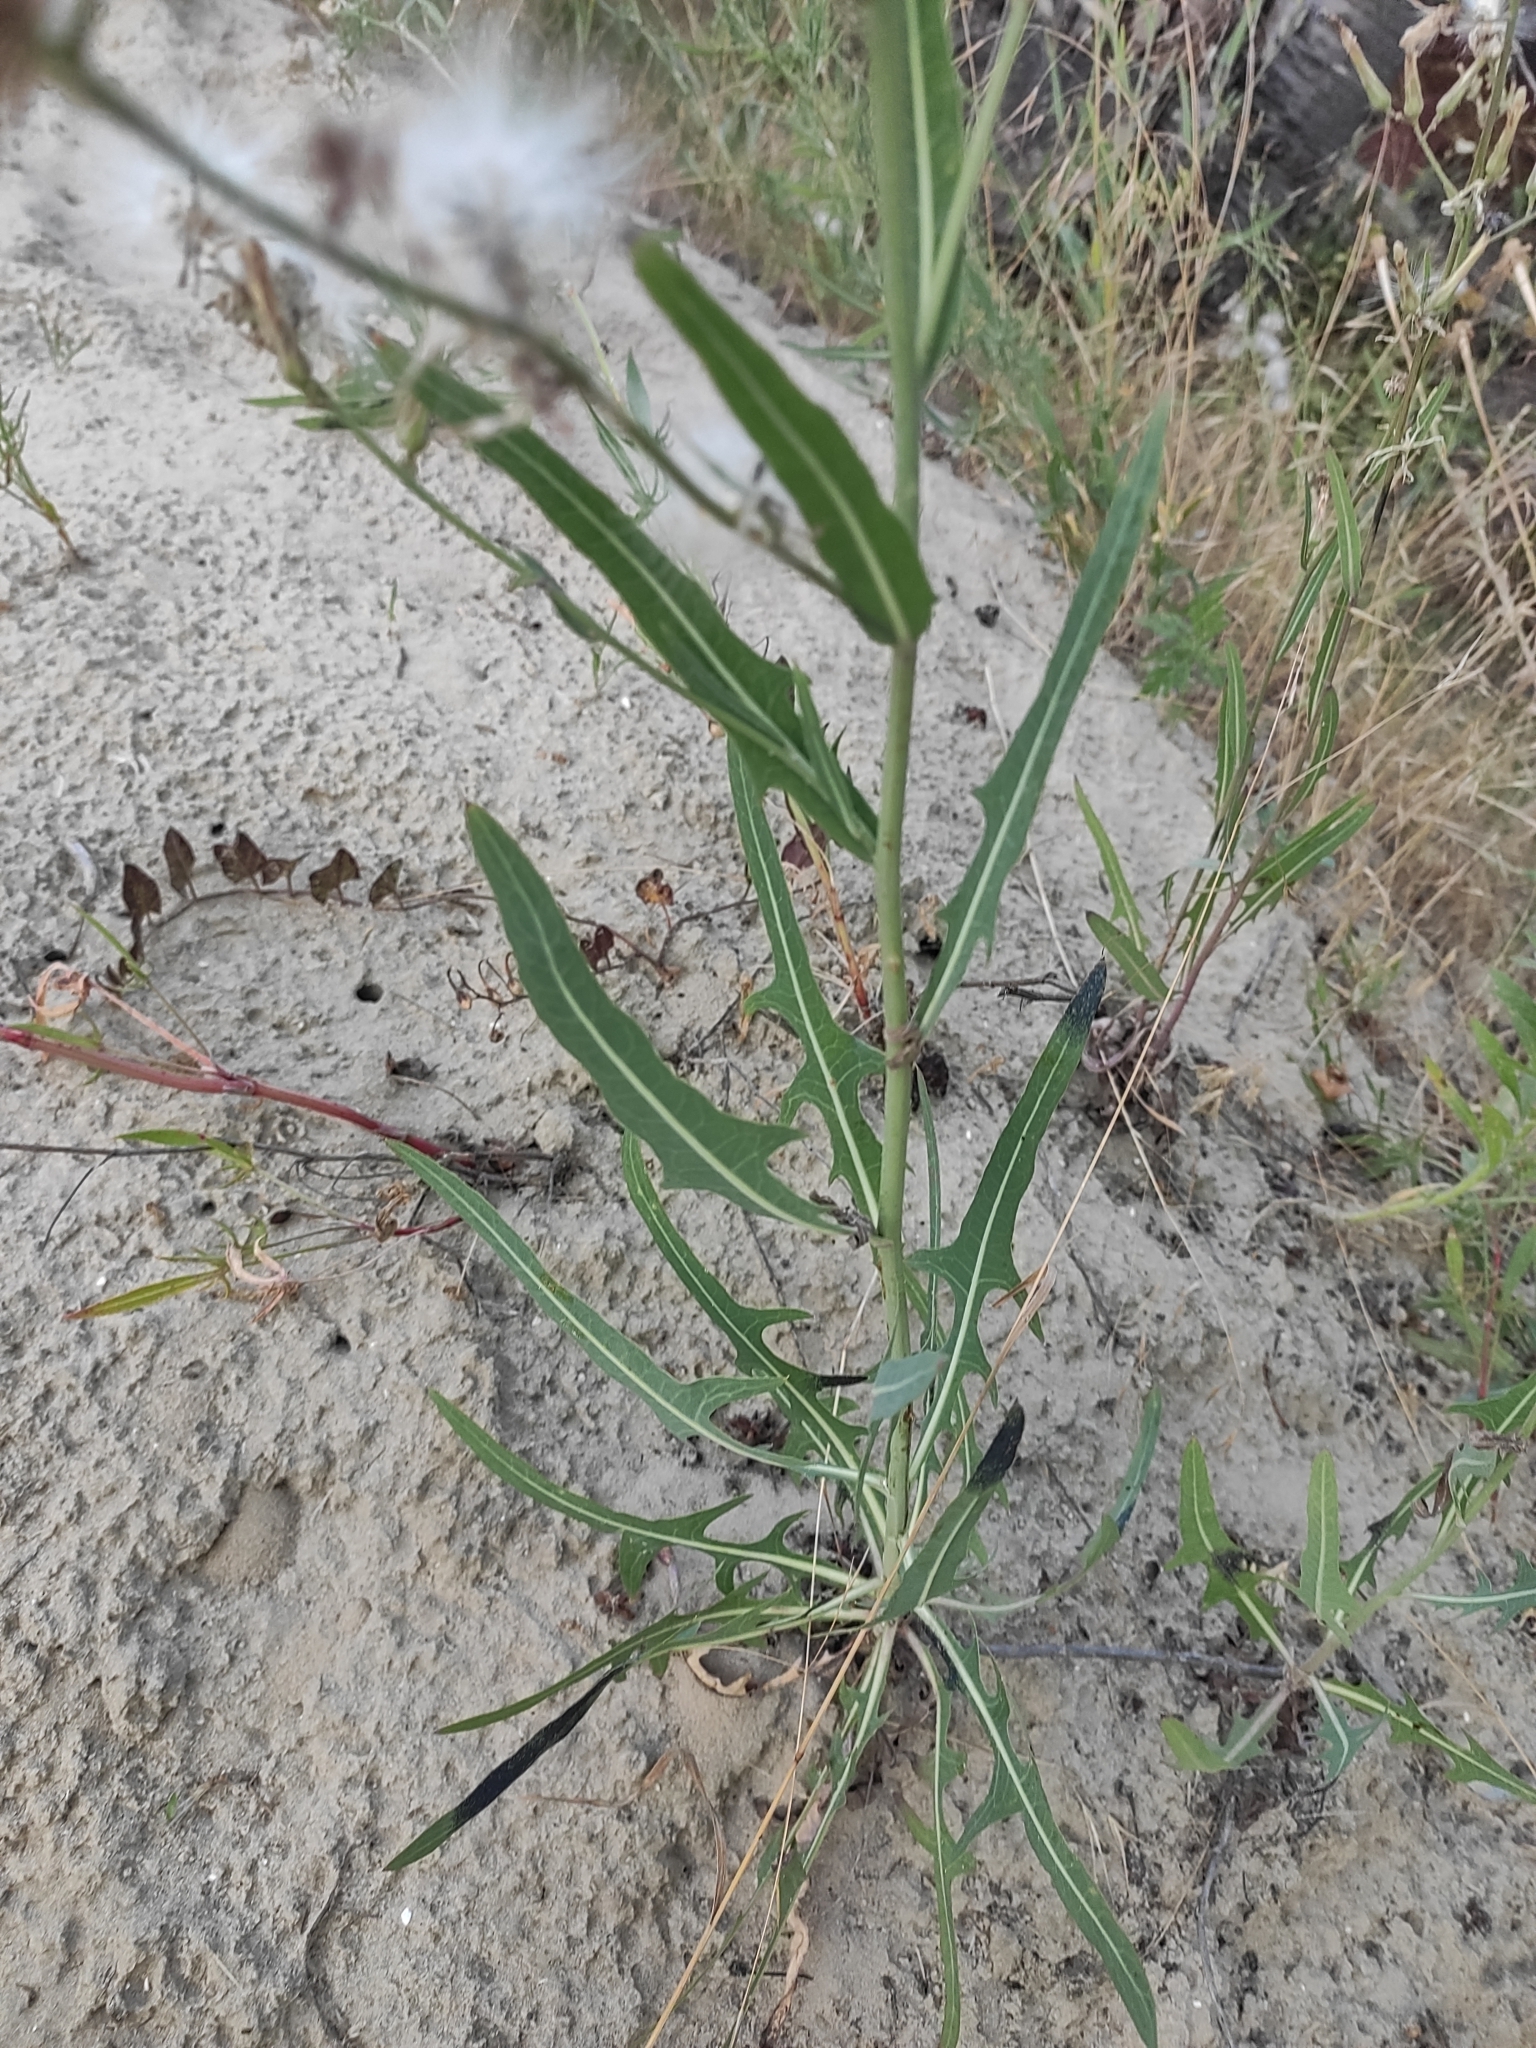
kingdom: Plantae
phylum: Tracheophyta
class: Magnoliopsida
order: Asterales
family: Asteraceae
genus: Lactuca
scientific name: Lactuca tatarica
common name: Blue lettuce
